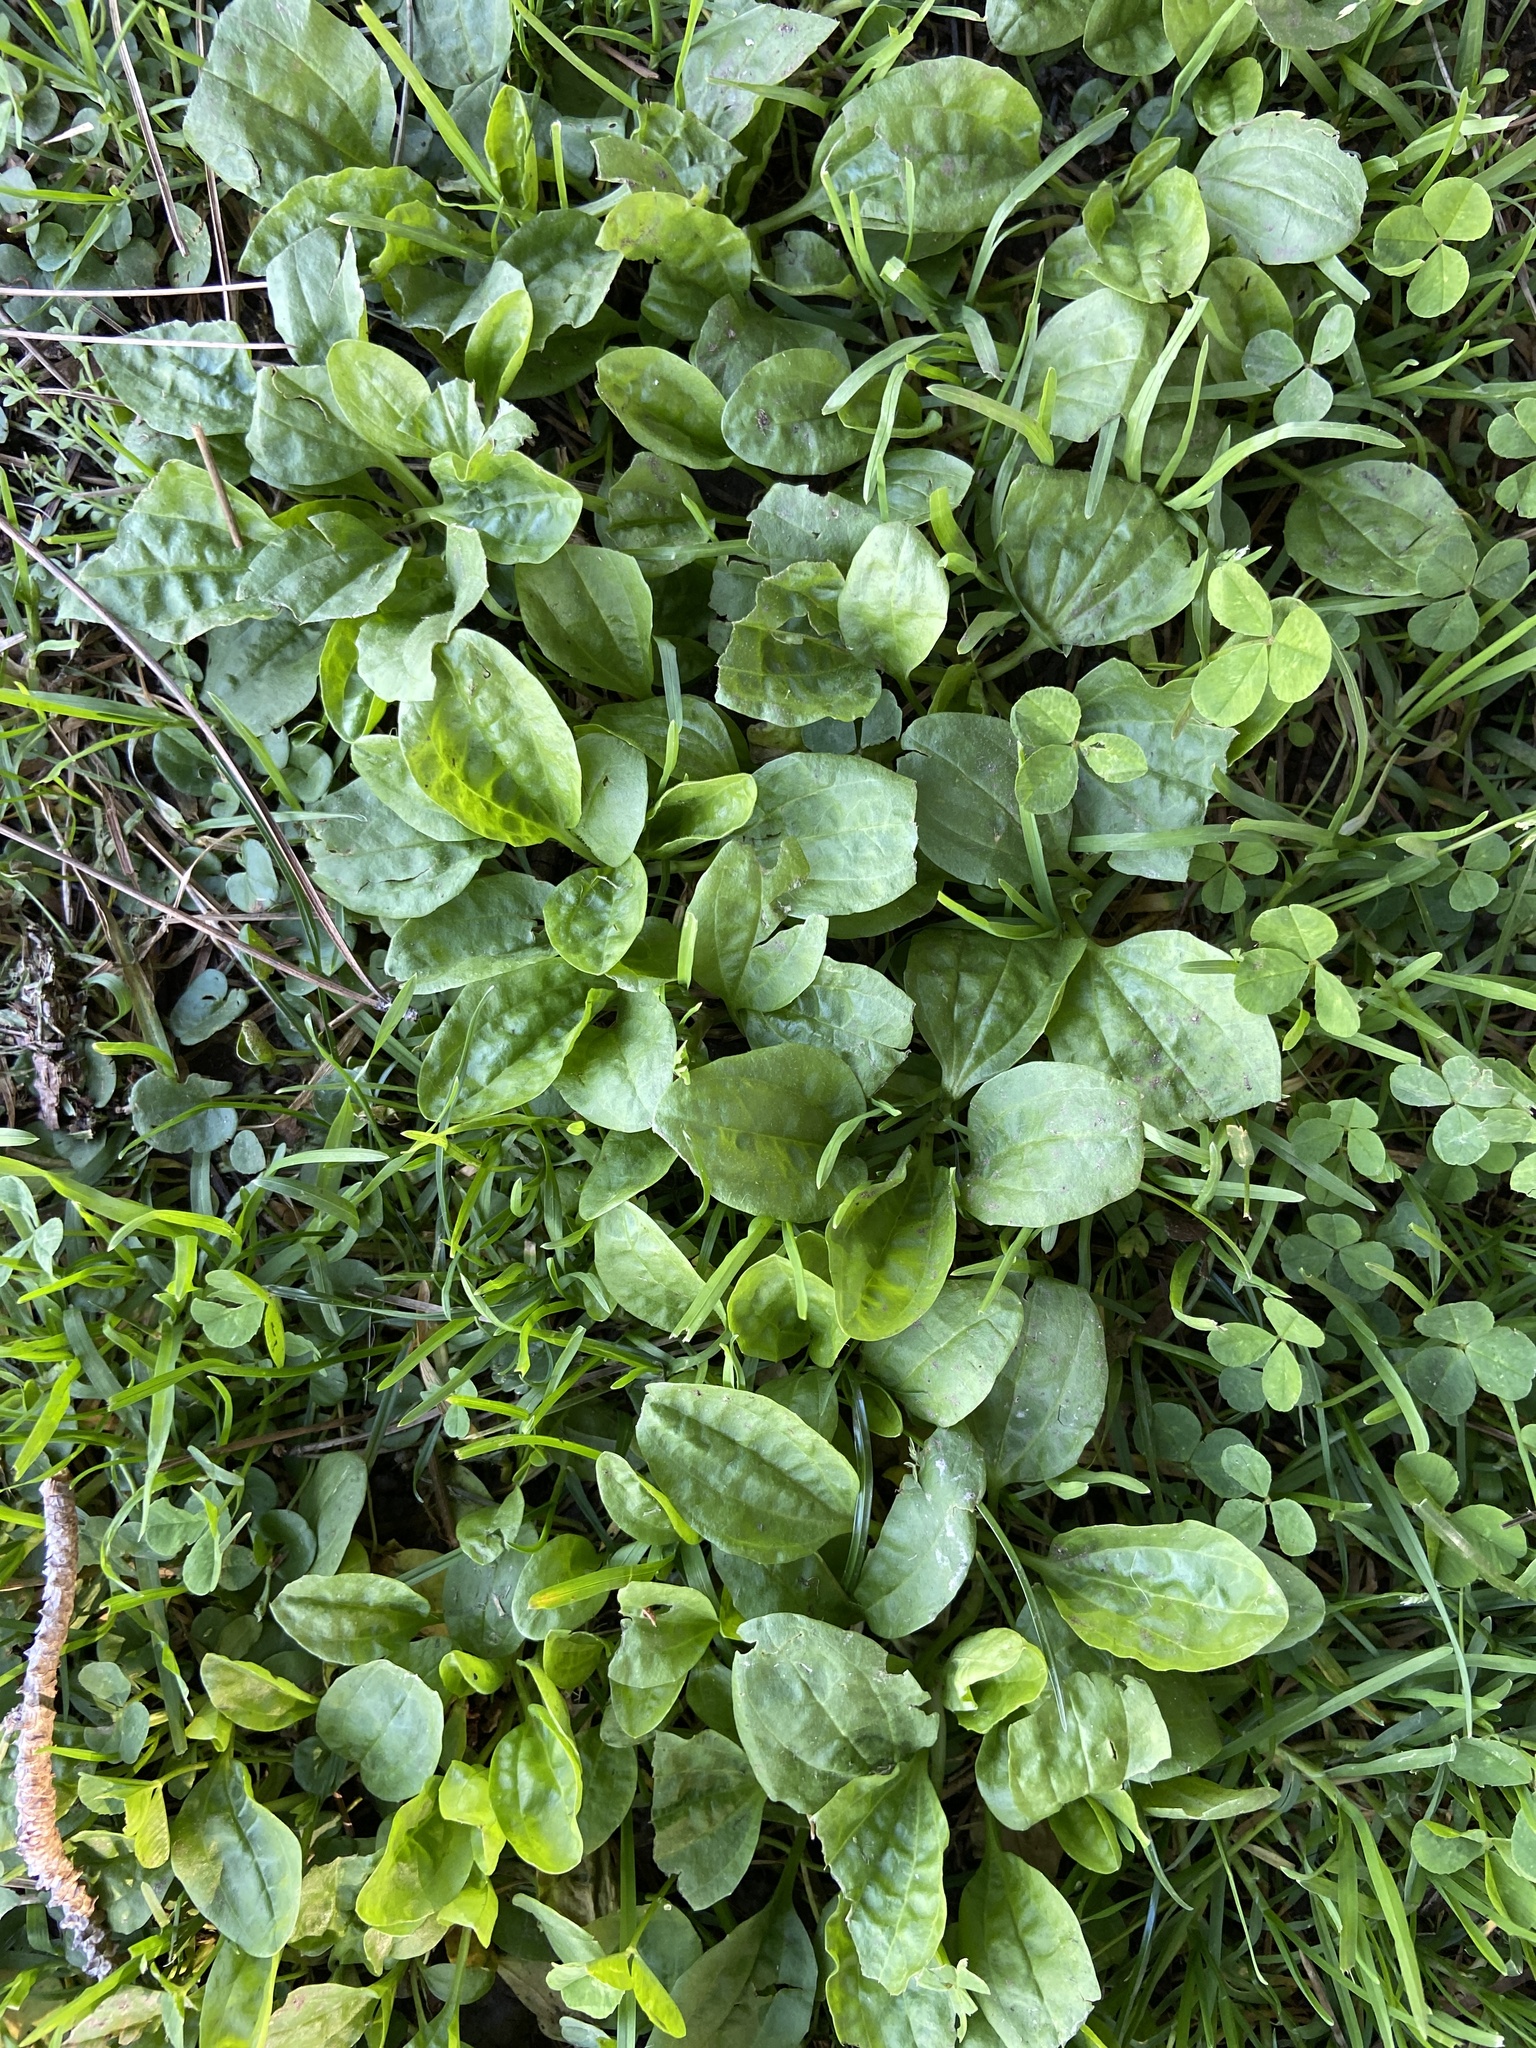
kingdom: Plantae
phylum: Tracheophyta
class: Magnoliopsida
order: Lamiales
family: Plantaginaceae
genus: Plantago
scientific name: Plantago major
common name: Common plantain
